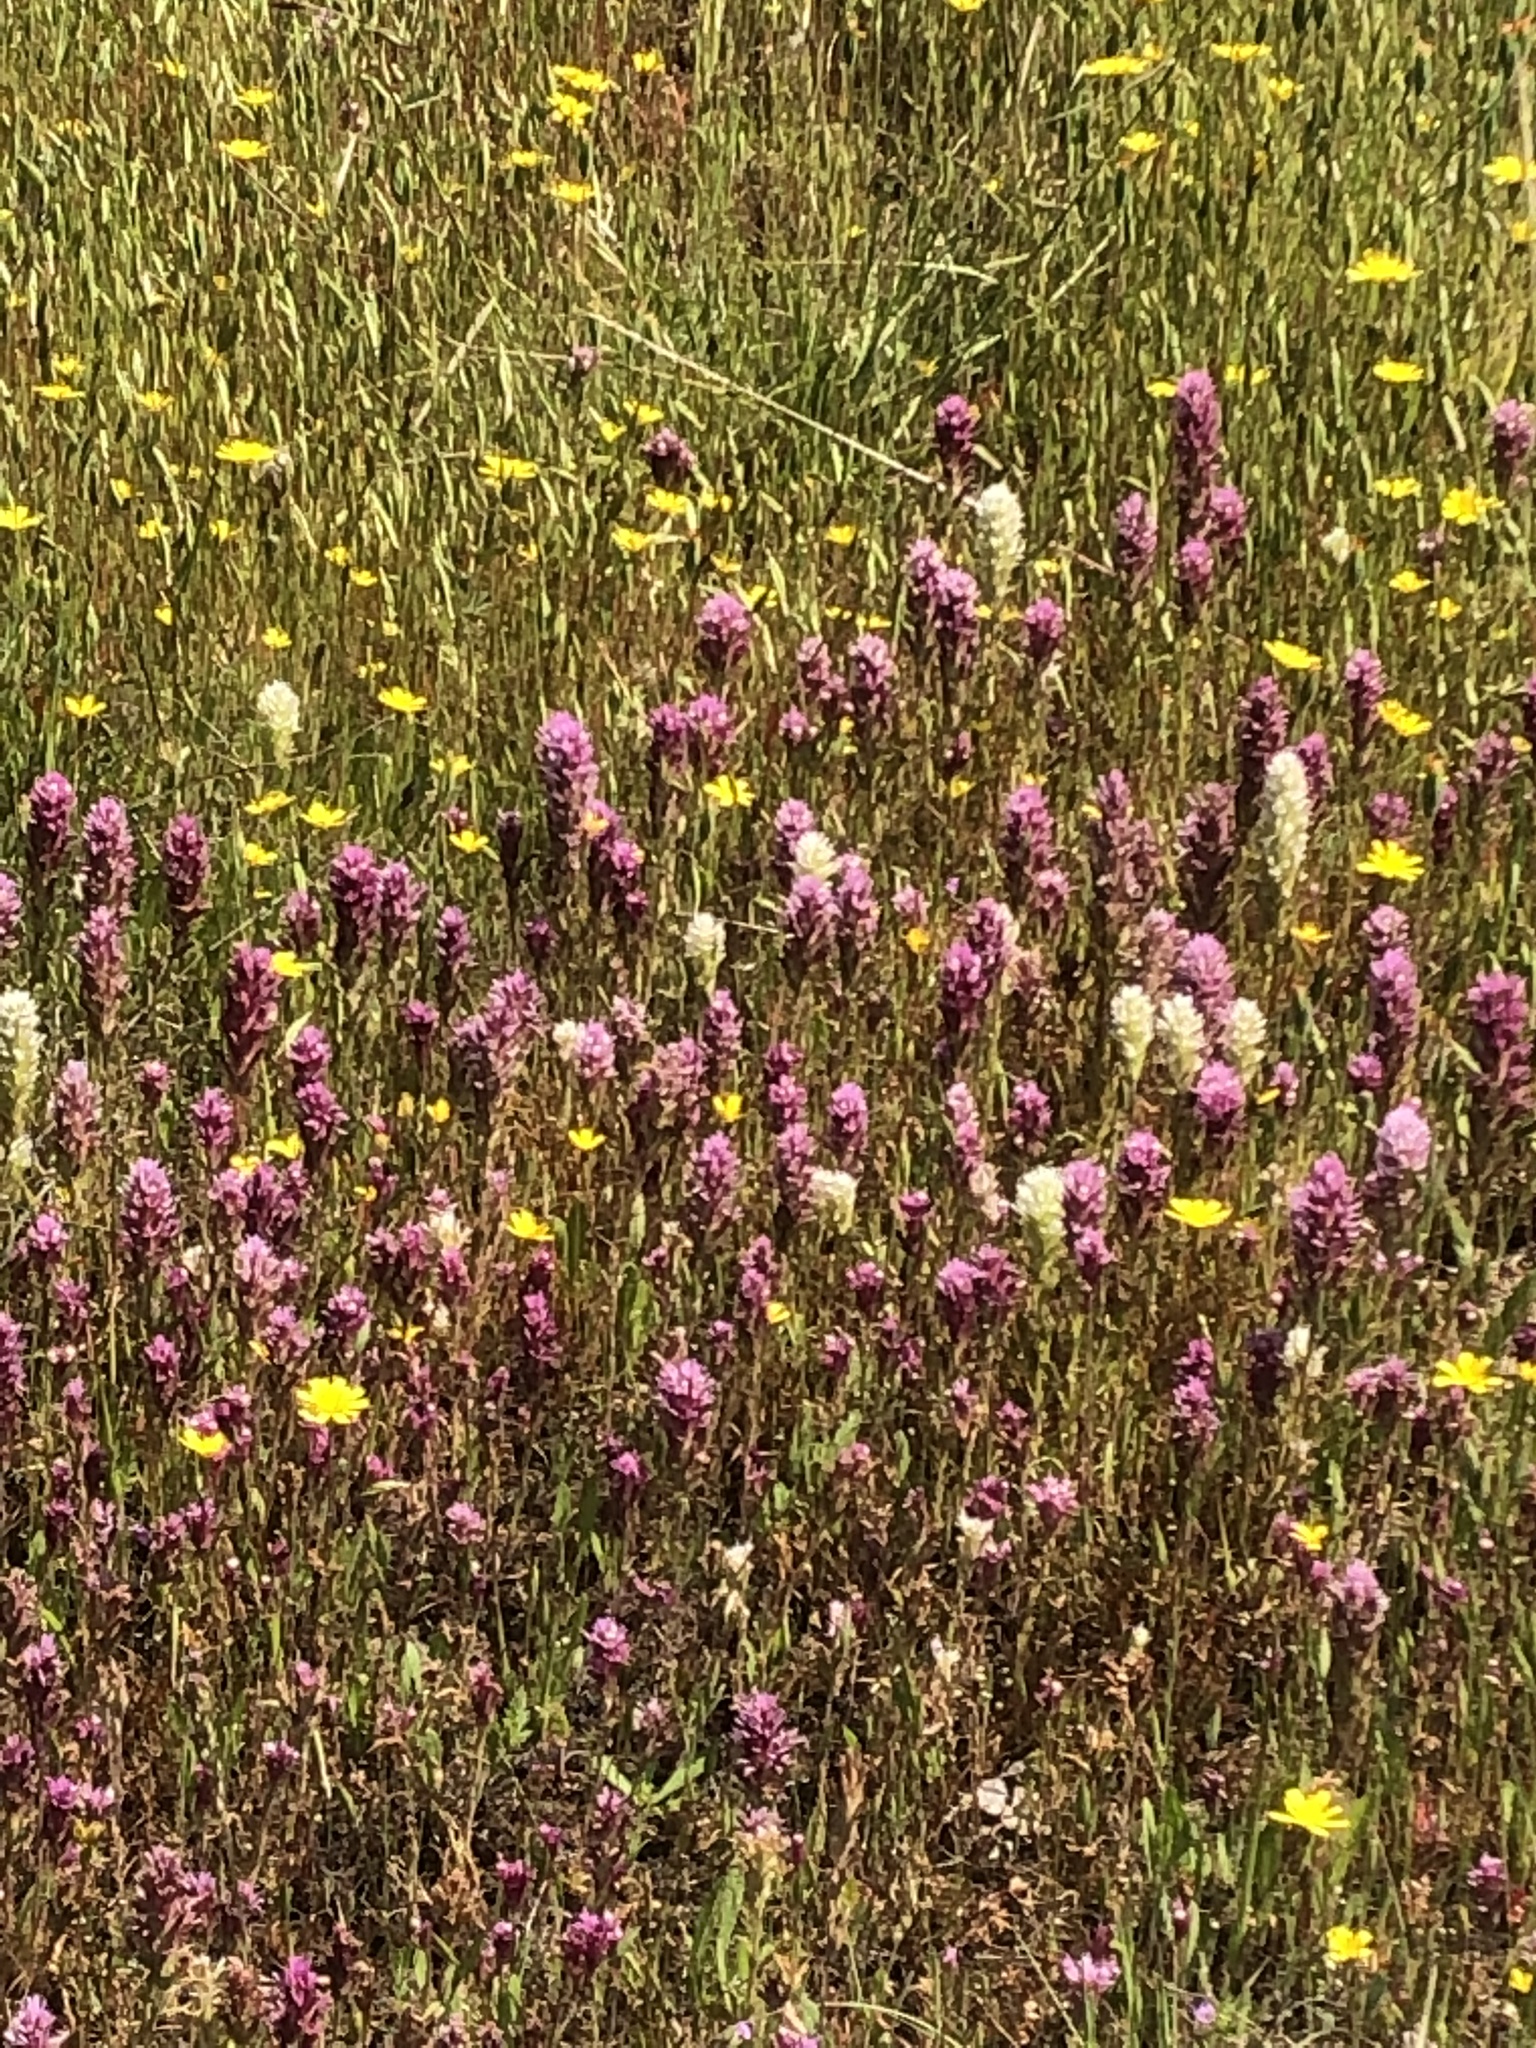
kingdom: Plantae
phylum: Tracheophyta
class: Magnoliopsida
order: Lamiales
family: Orobanchaceae
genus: Castilleja
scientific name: Castilleja densiflora
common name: Dense-flower indian paintbrush
